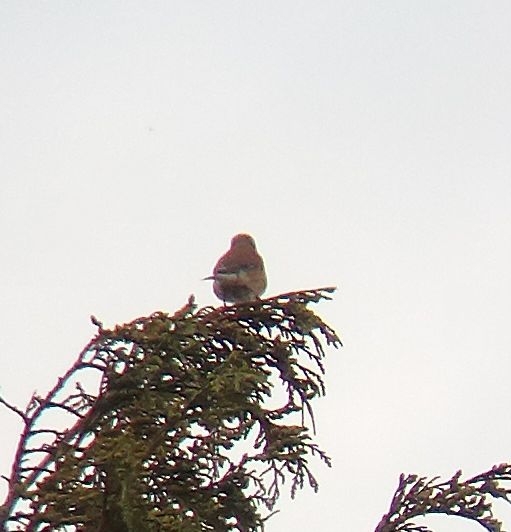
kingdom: Animalia
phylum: Chordata
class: Aves
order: Passeriformes
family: Fringillidae
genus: Linaria
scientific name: Linaria cannabina
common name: Common linnet
